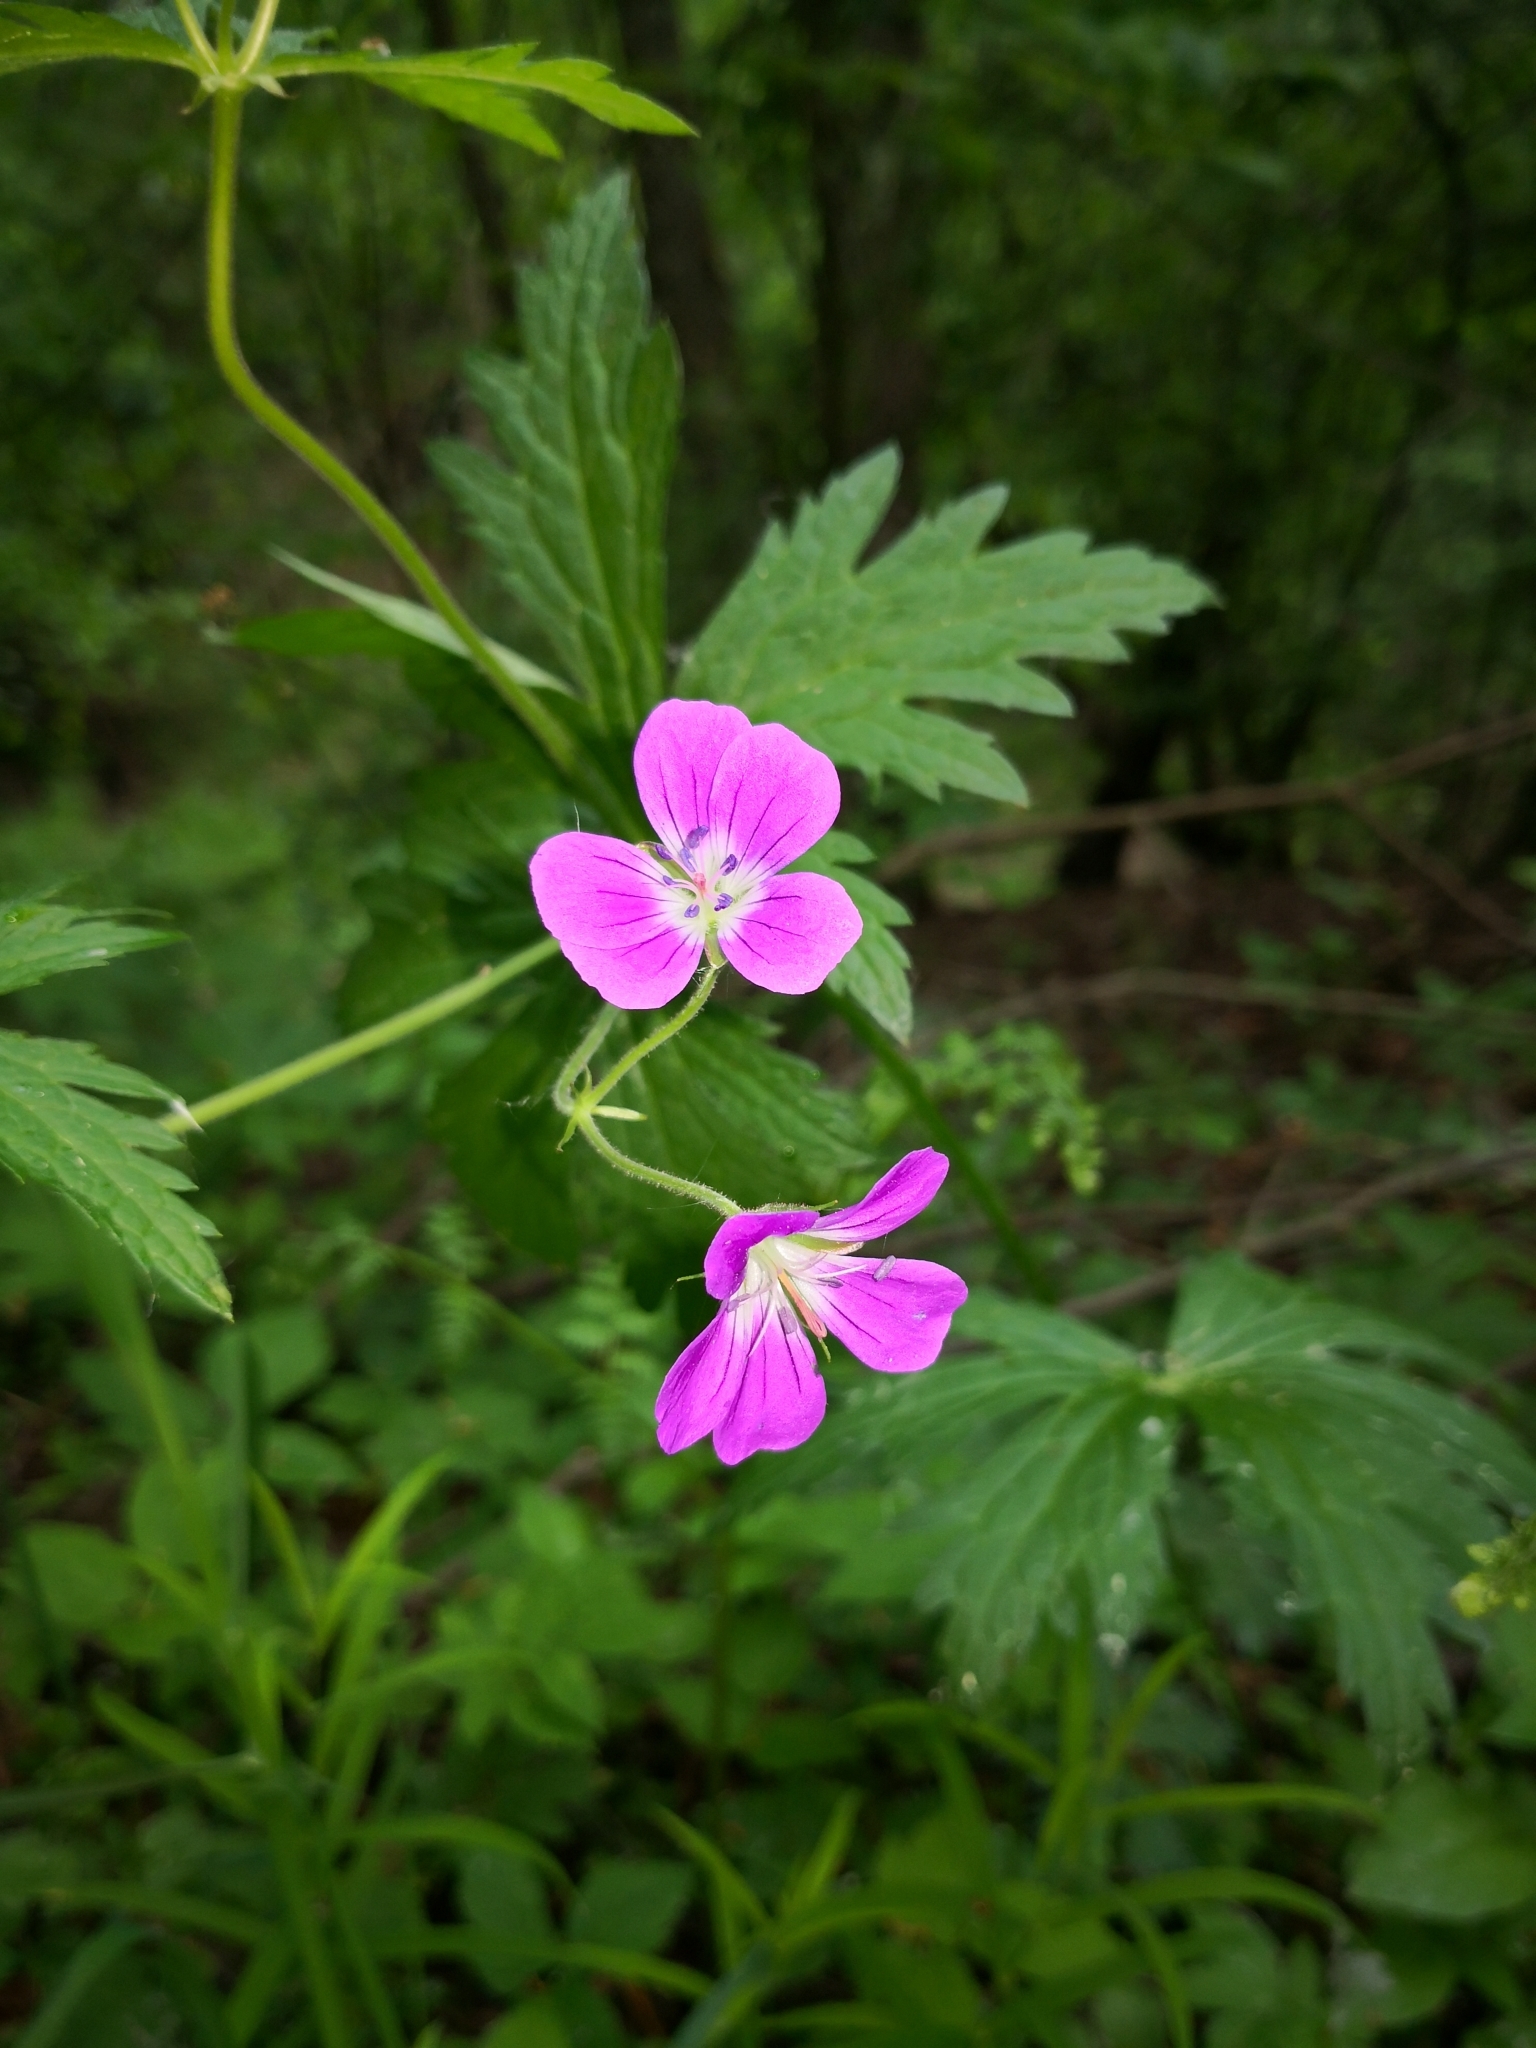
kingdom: Plantae
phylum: Tracheophyta
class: Magnoliopsida
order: Geraniales
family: Geraniaceae
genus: Geranium
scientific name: Geranium sylvaticum
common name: Wood crane's-bill
